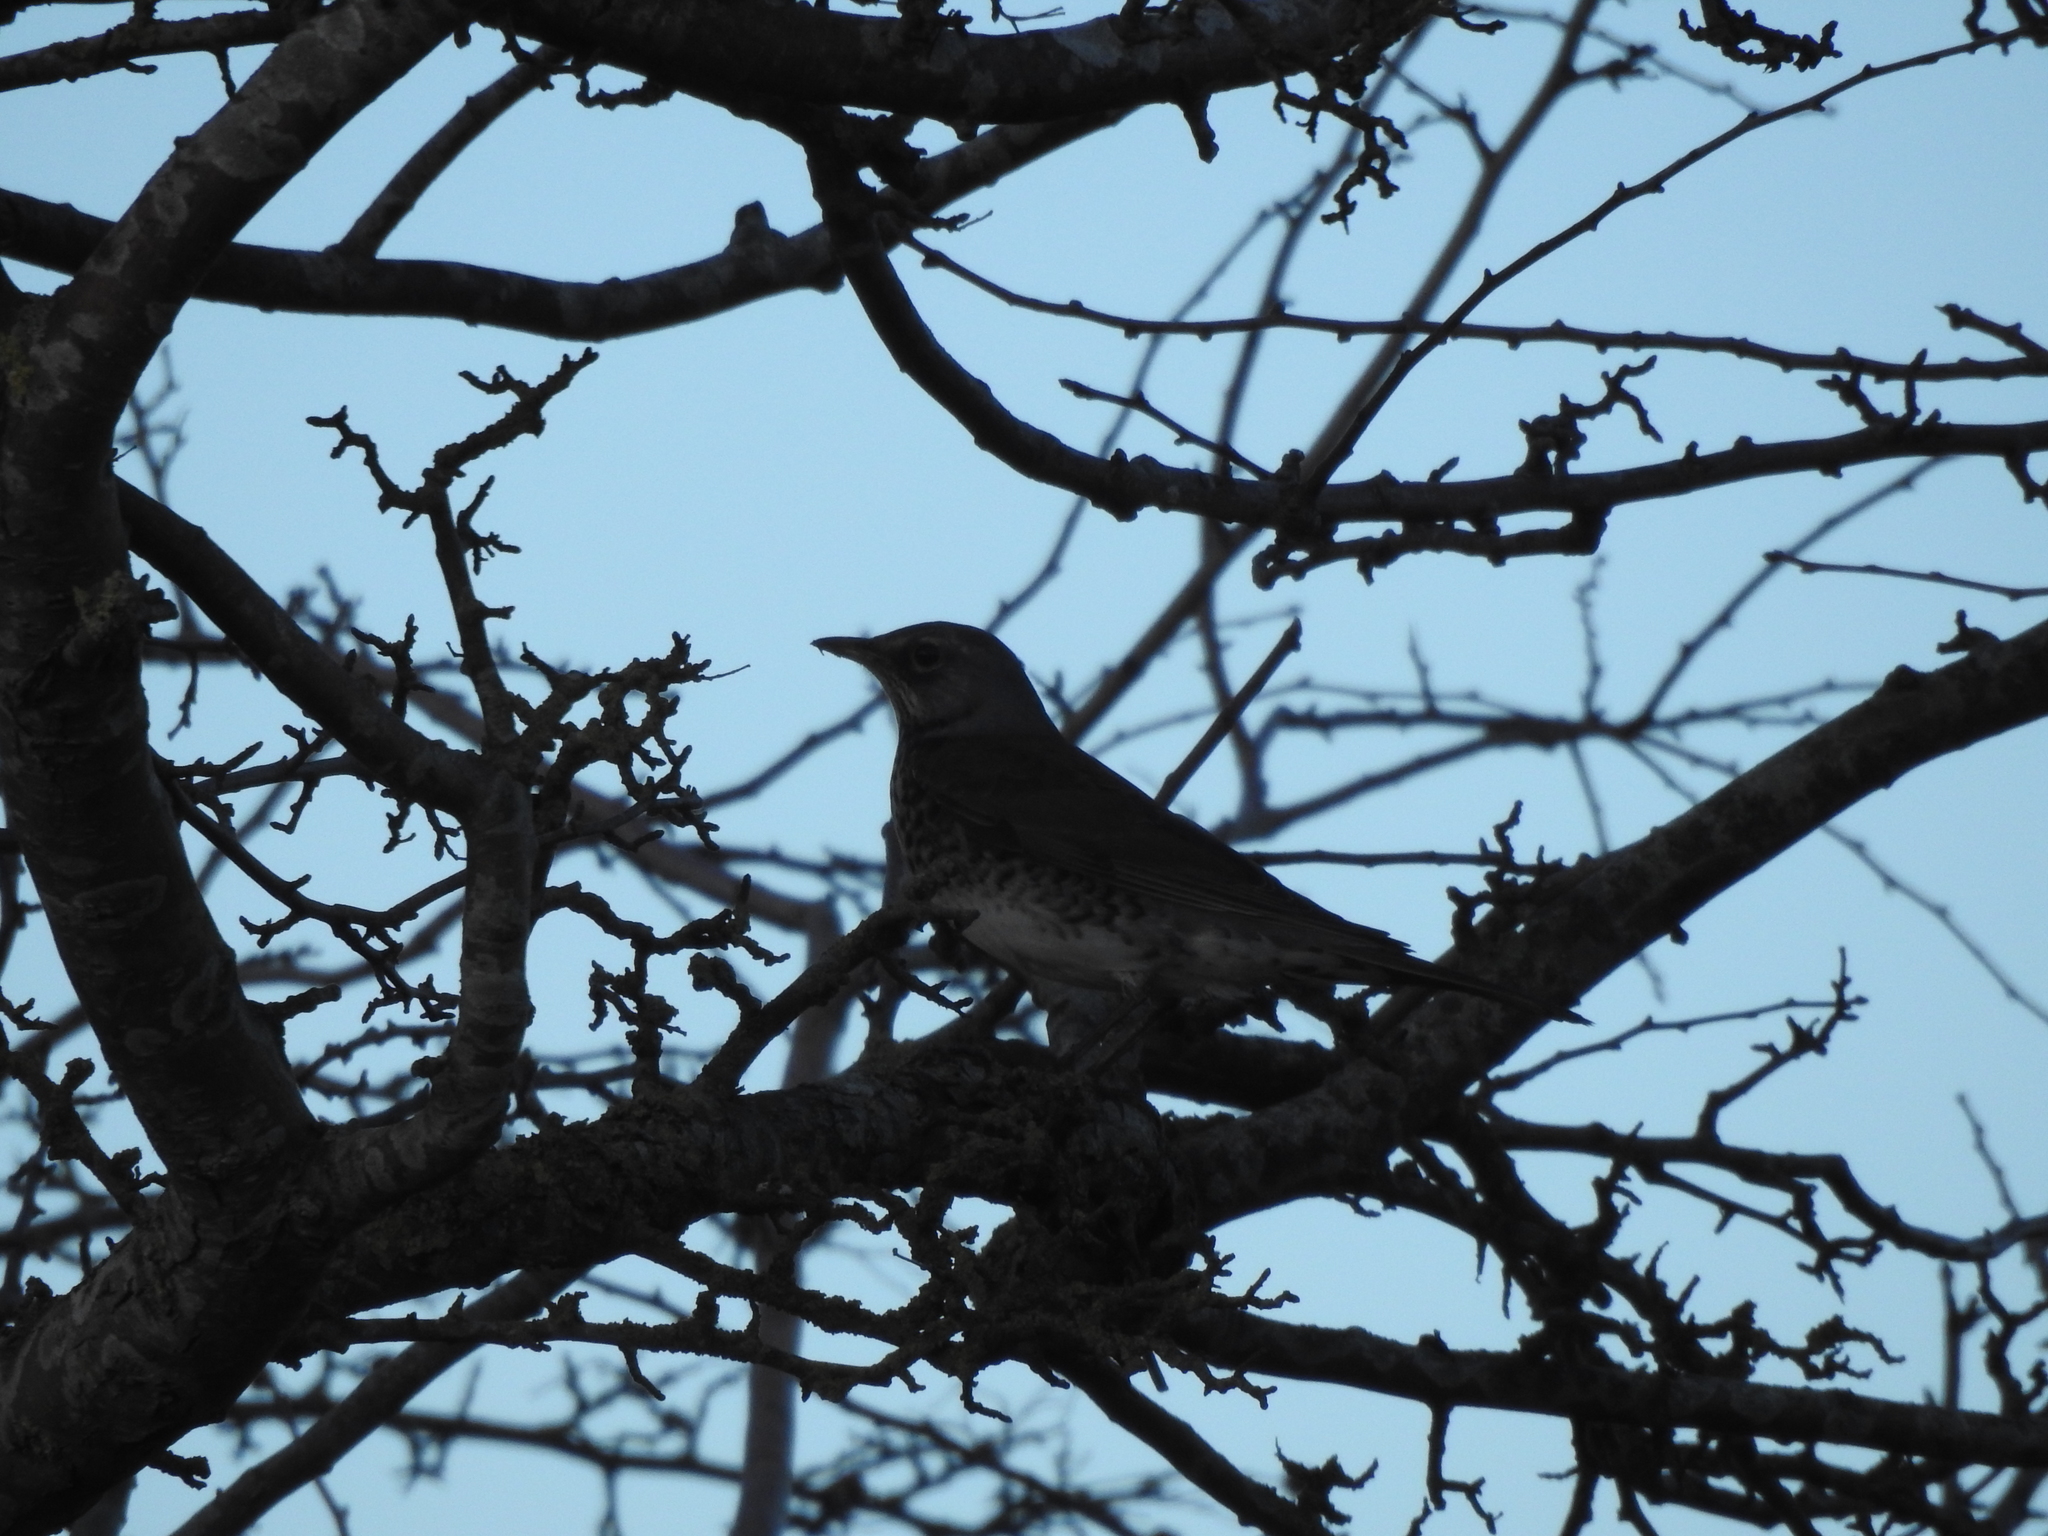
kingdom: Animalia
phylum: Chordata
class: Aves
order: Passeriformes
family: Turdidae
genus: Turdus
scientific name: Turdus pilaris
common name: Fieldfare
